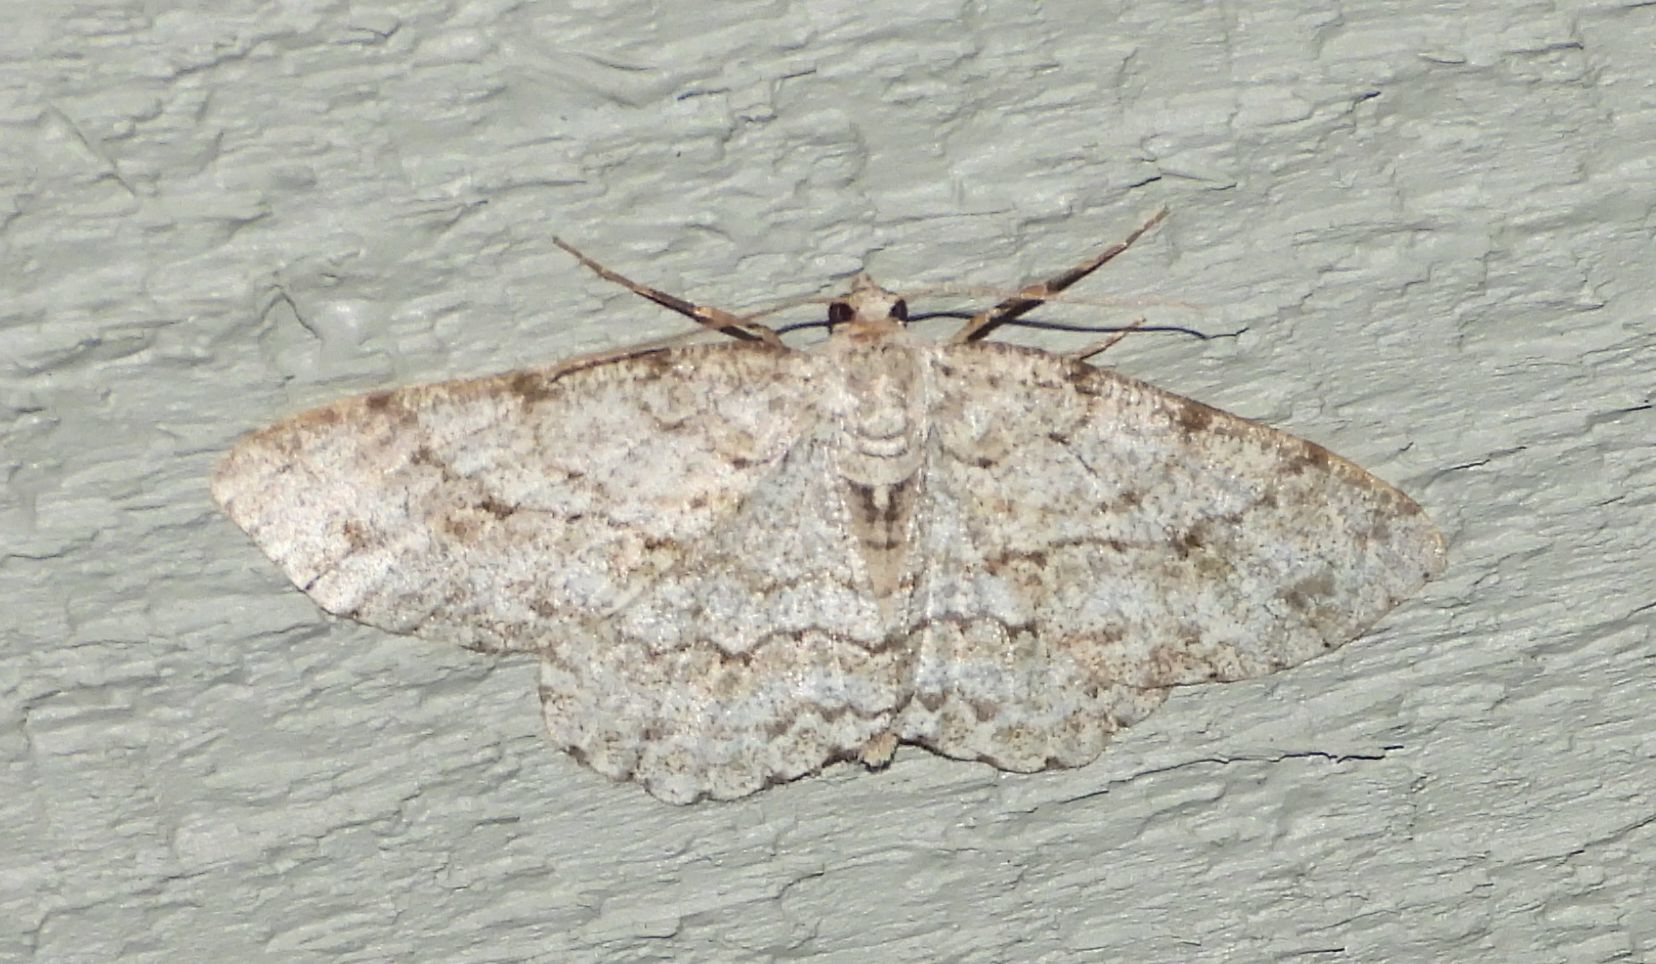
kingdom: Animalia
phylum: Arthropoda
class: Insecta
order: Lepidoptera
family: Geometridae
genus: Ectropis
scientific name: Ectropis crepuscularia
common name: Engrailed
